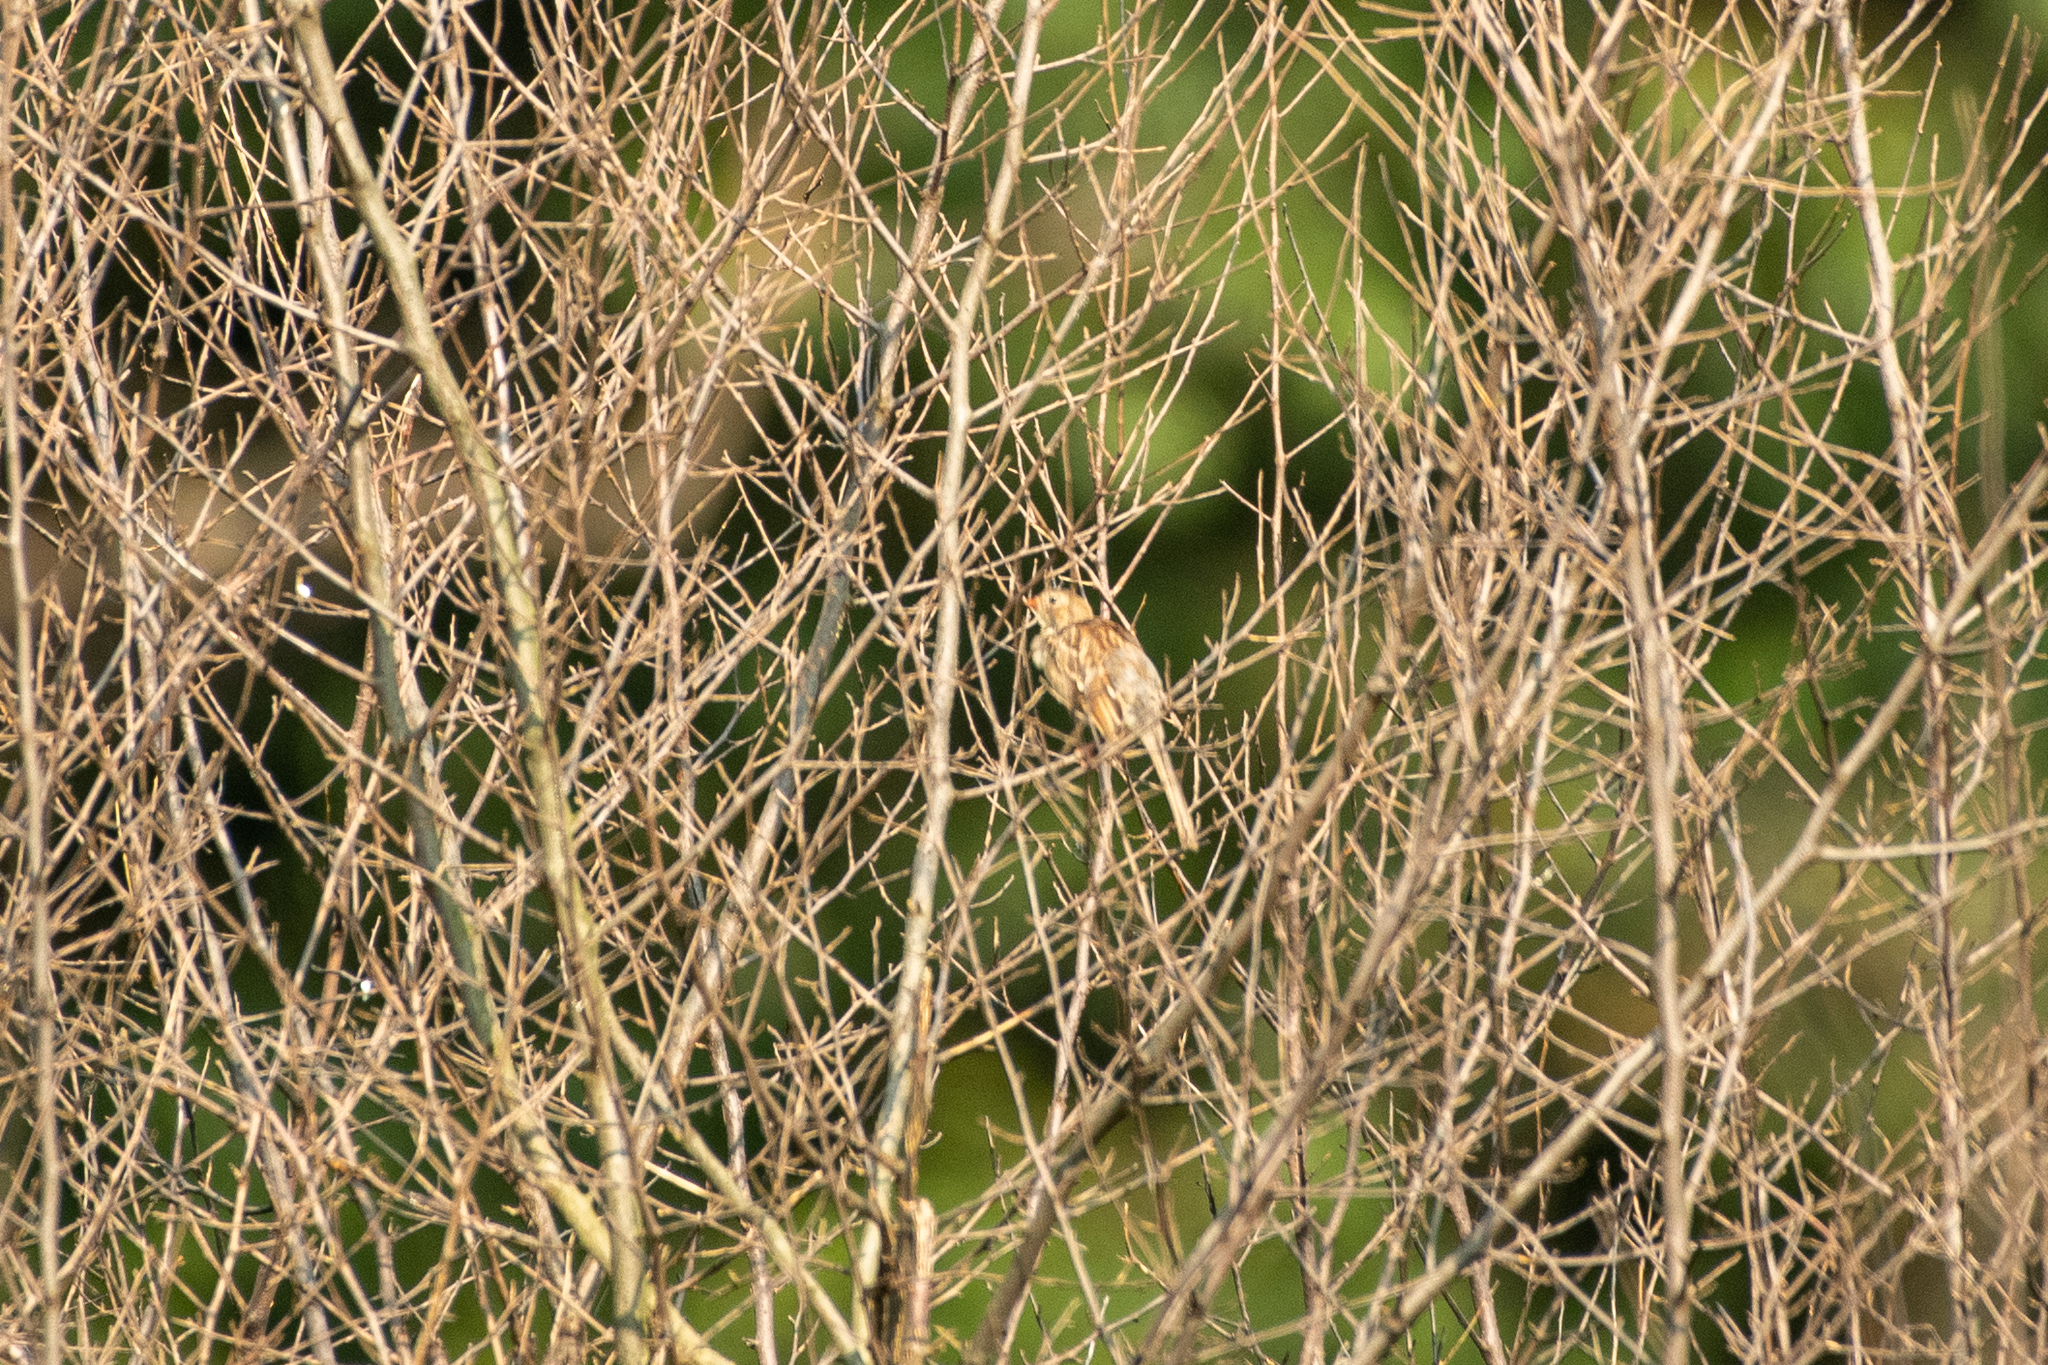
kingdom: Animalia
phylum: Chordata
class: Aves
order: Passeriformes
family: Passerellidae
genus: Spizella
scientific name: Spizella pusilla
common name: Field sparrow
